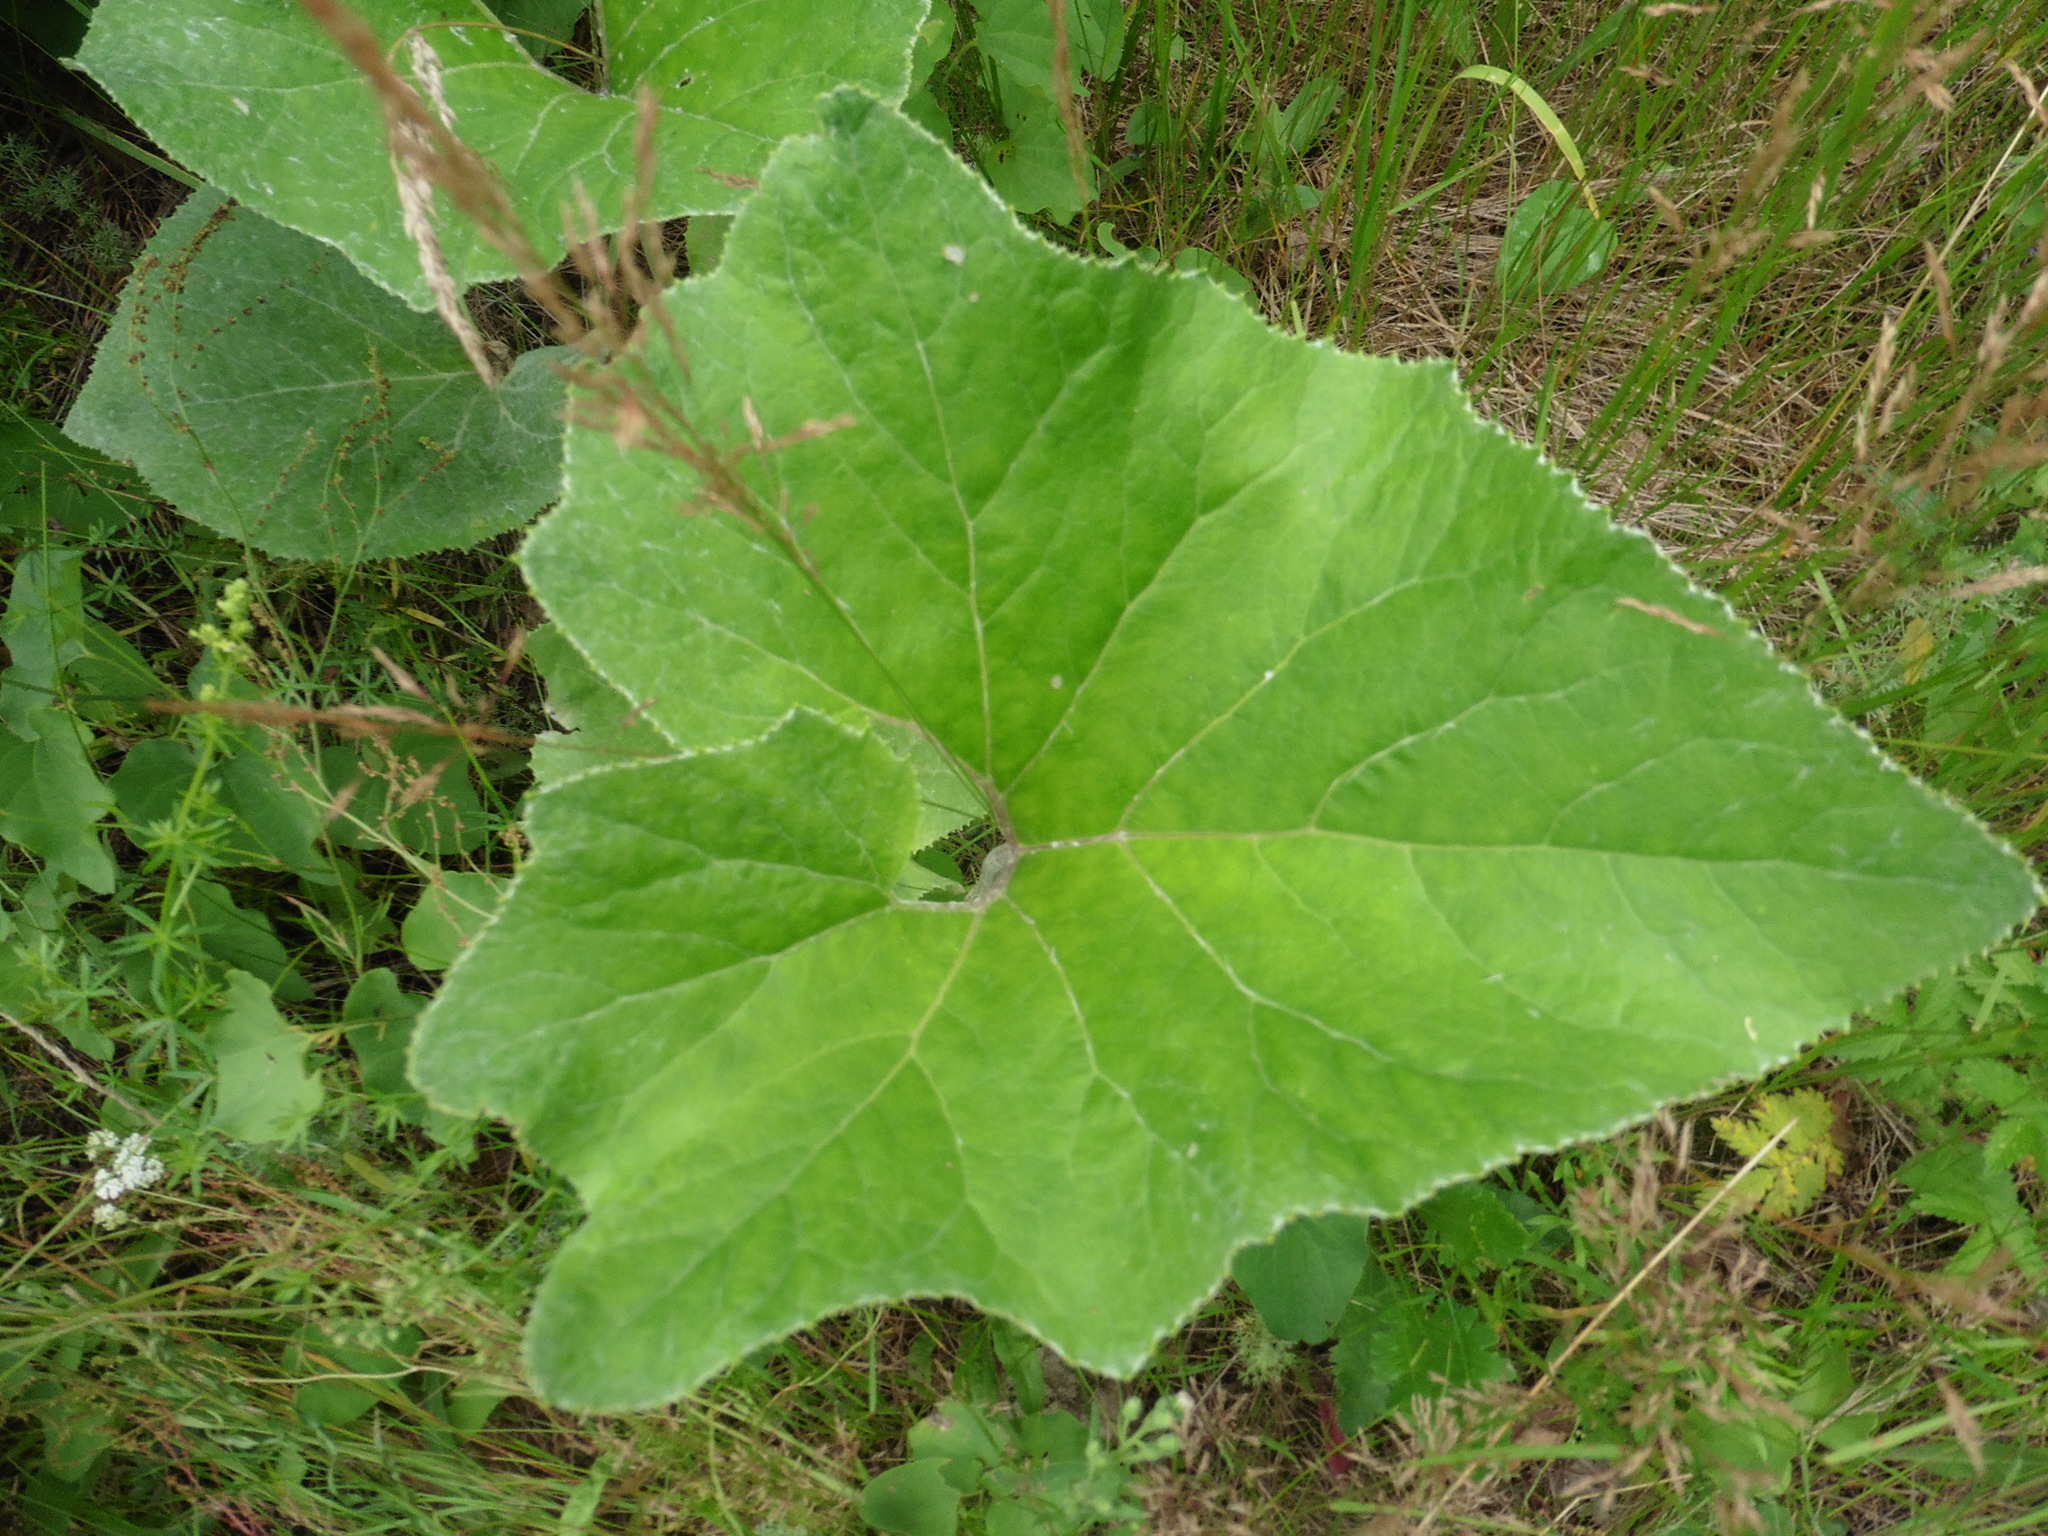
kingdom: Plantae
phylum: Tracheophyta
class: Magnoliopsida
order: Asterales
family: Asteraceae
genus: Petasites
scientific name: Petasites spurius
